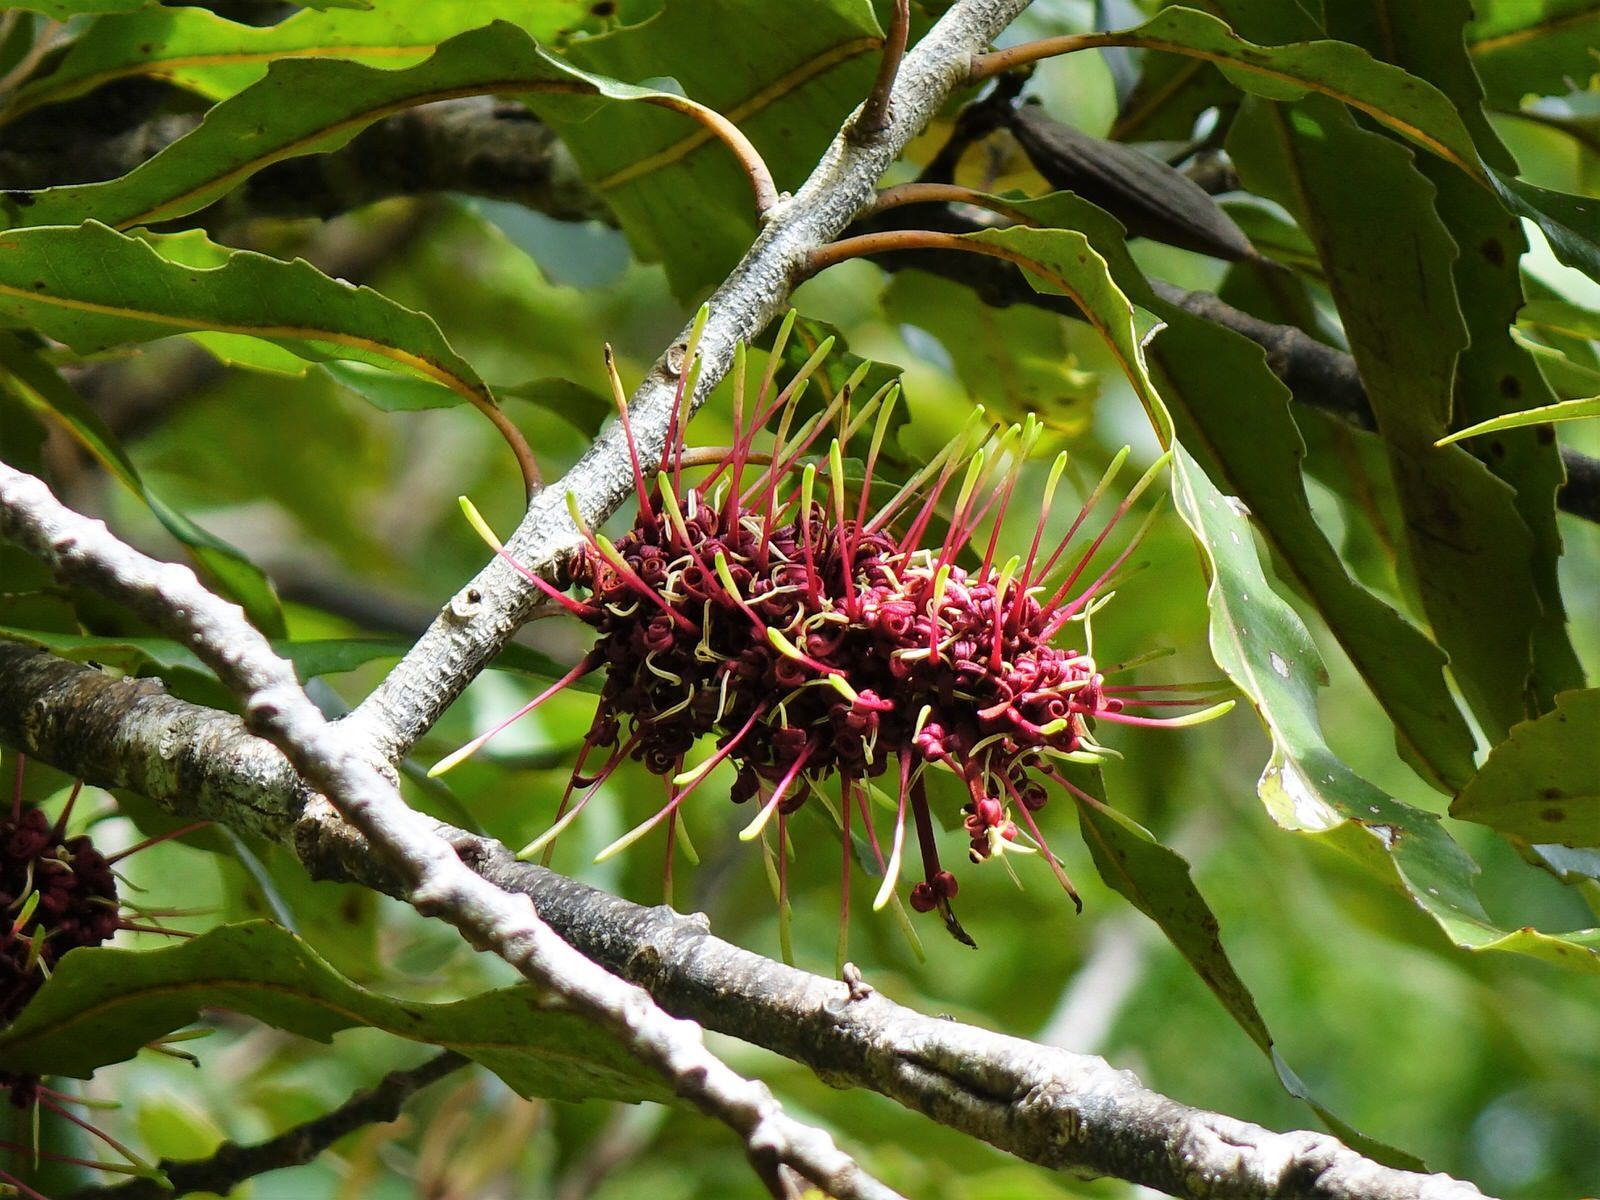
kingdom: Plantae
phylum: Tracheophyta
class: Magnoliopsida
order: Proteales
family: Proteaceae
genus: Knightia
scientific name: Knightia excelsa
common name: New zealand-honeysuckle
